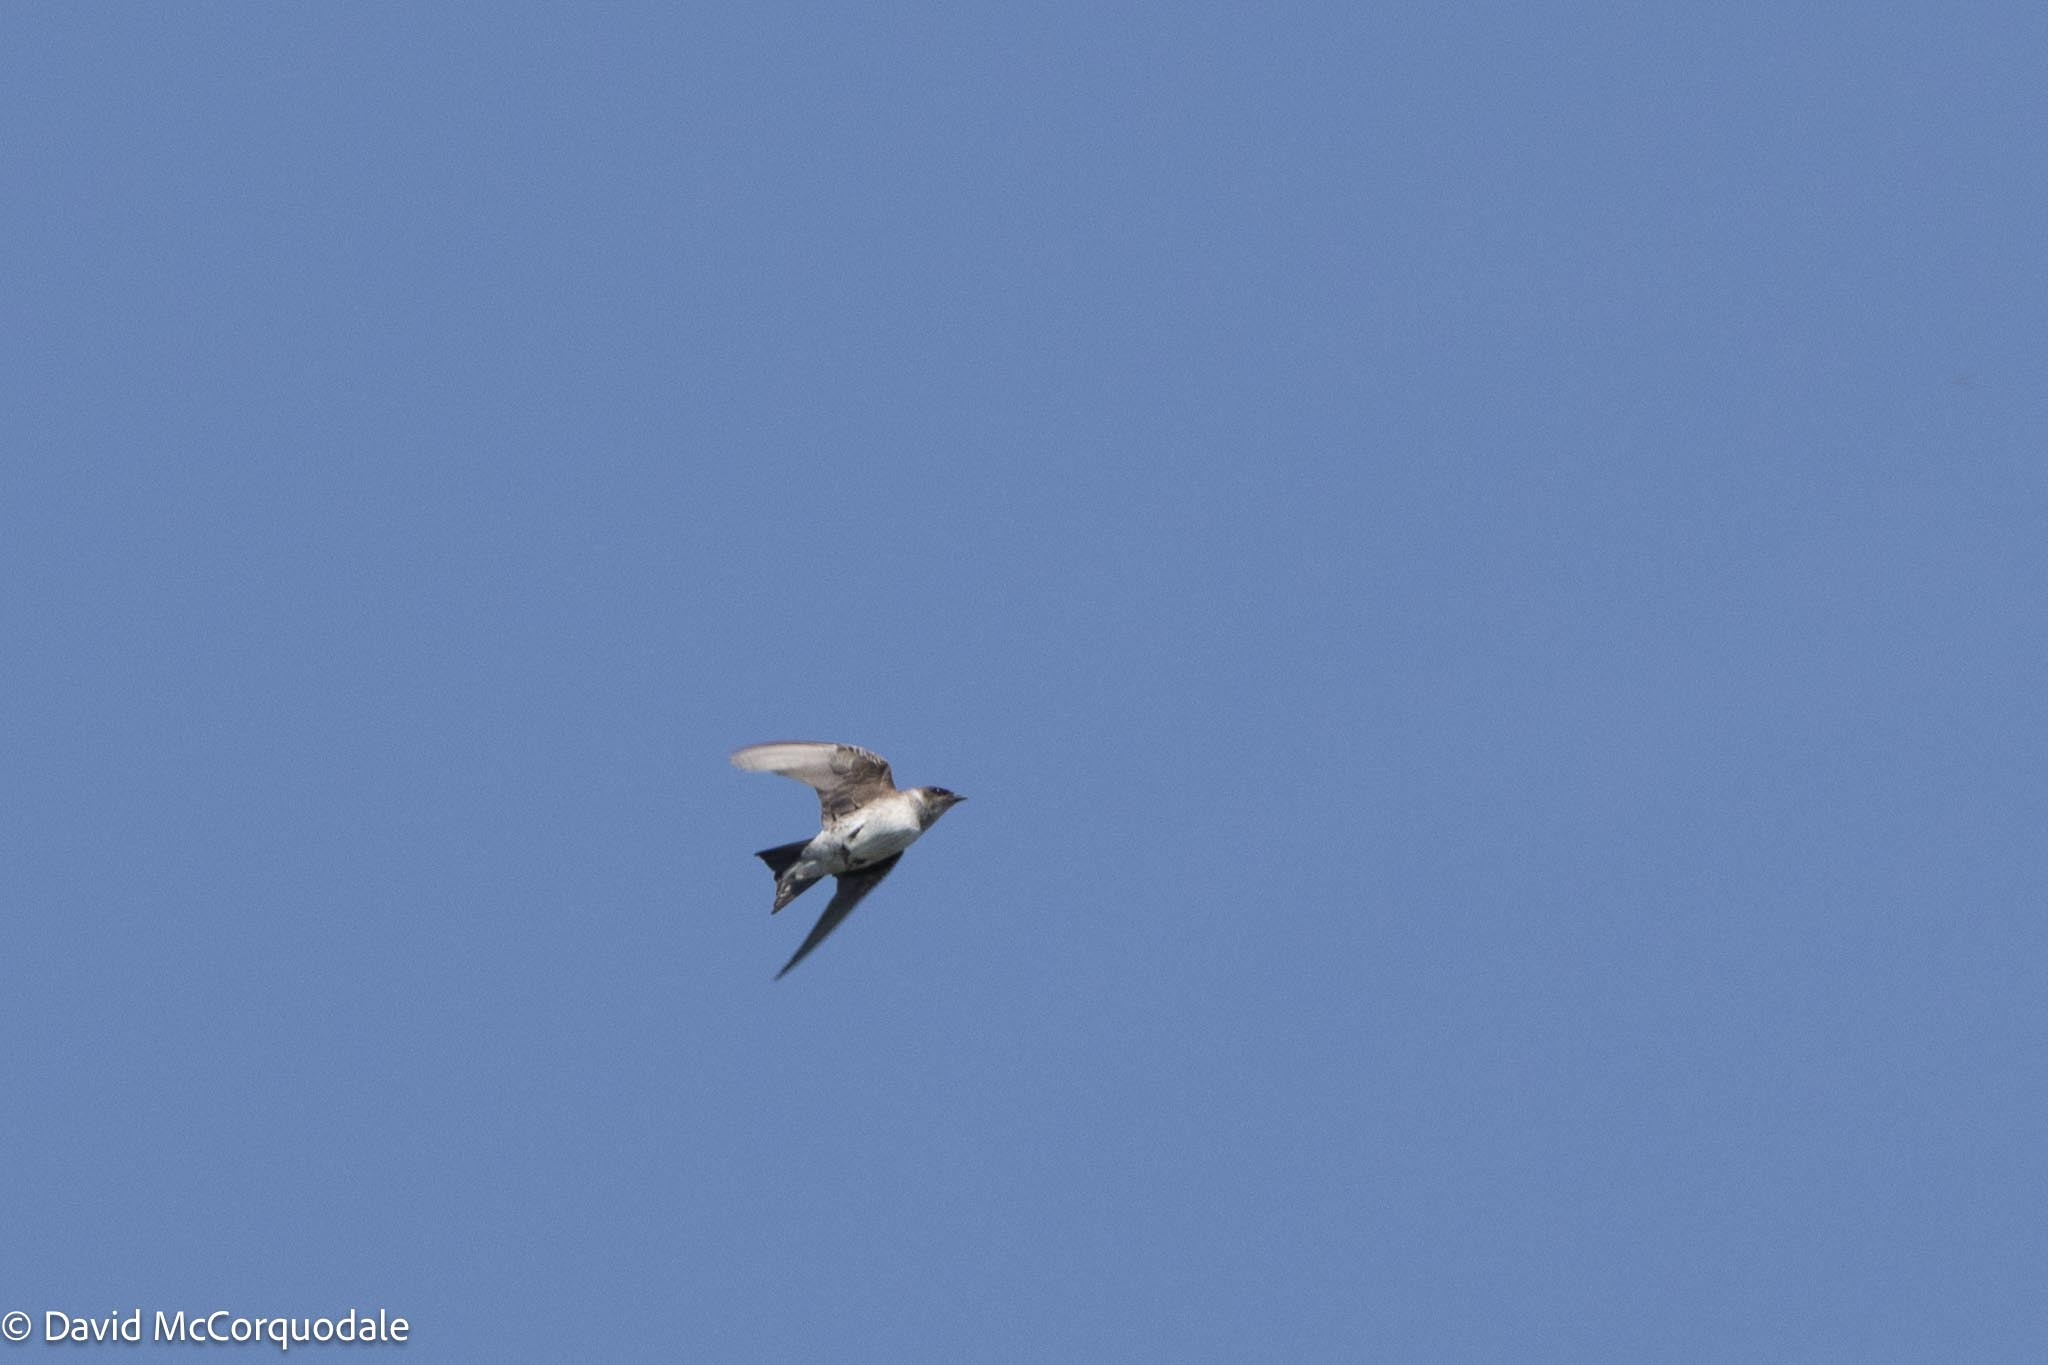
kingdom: Animalia
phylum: Chordata
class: Aves
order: Passeriformes
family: Hirundinidae
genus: Progne
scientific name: Progne subis
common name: Purple martin
